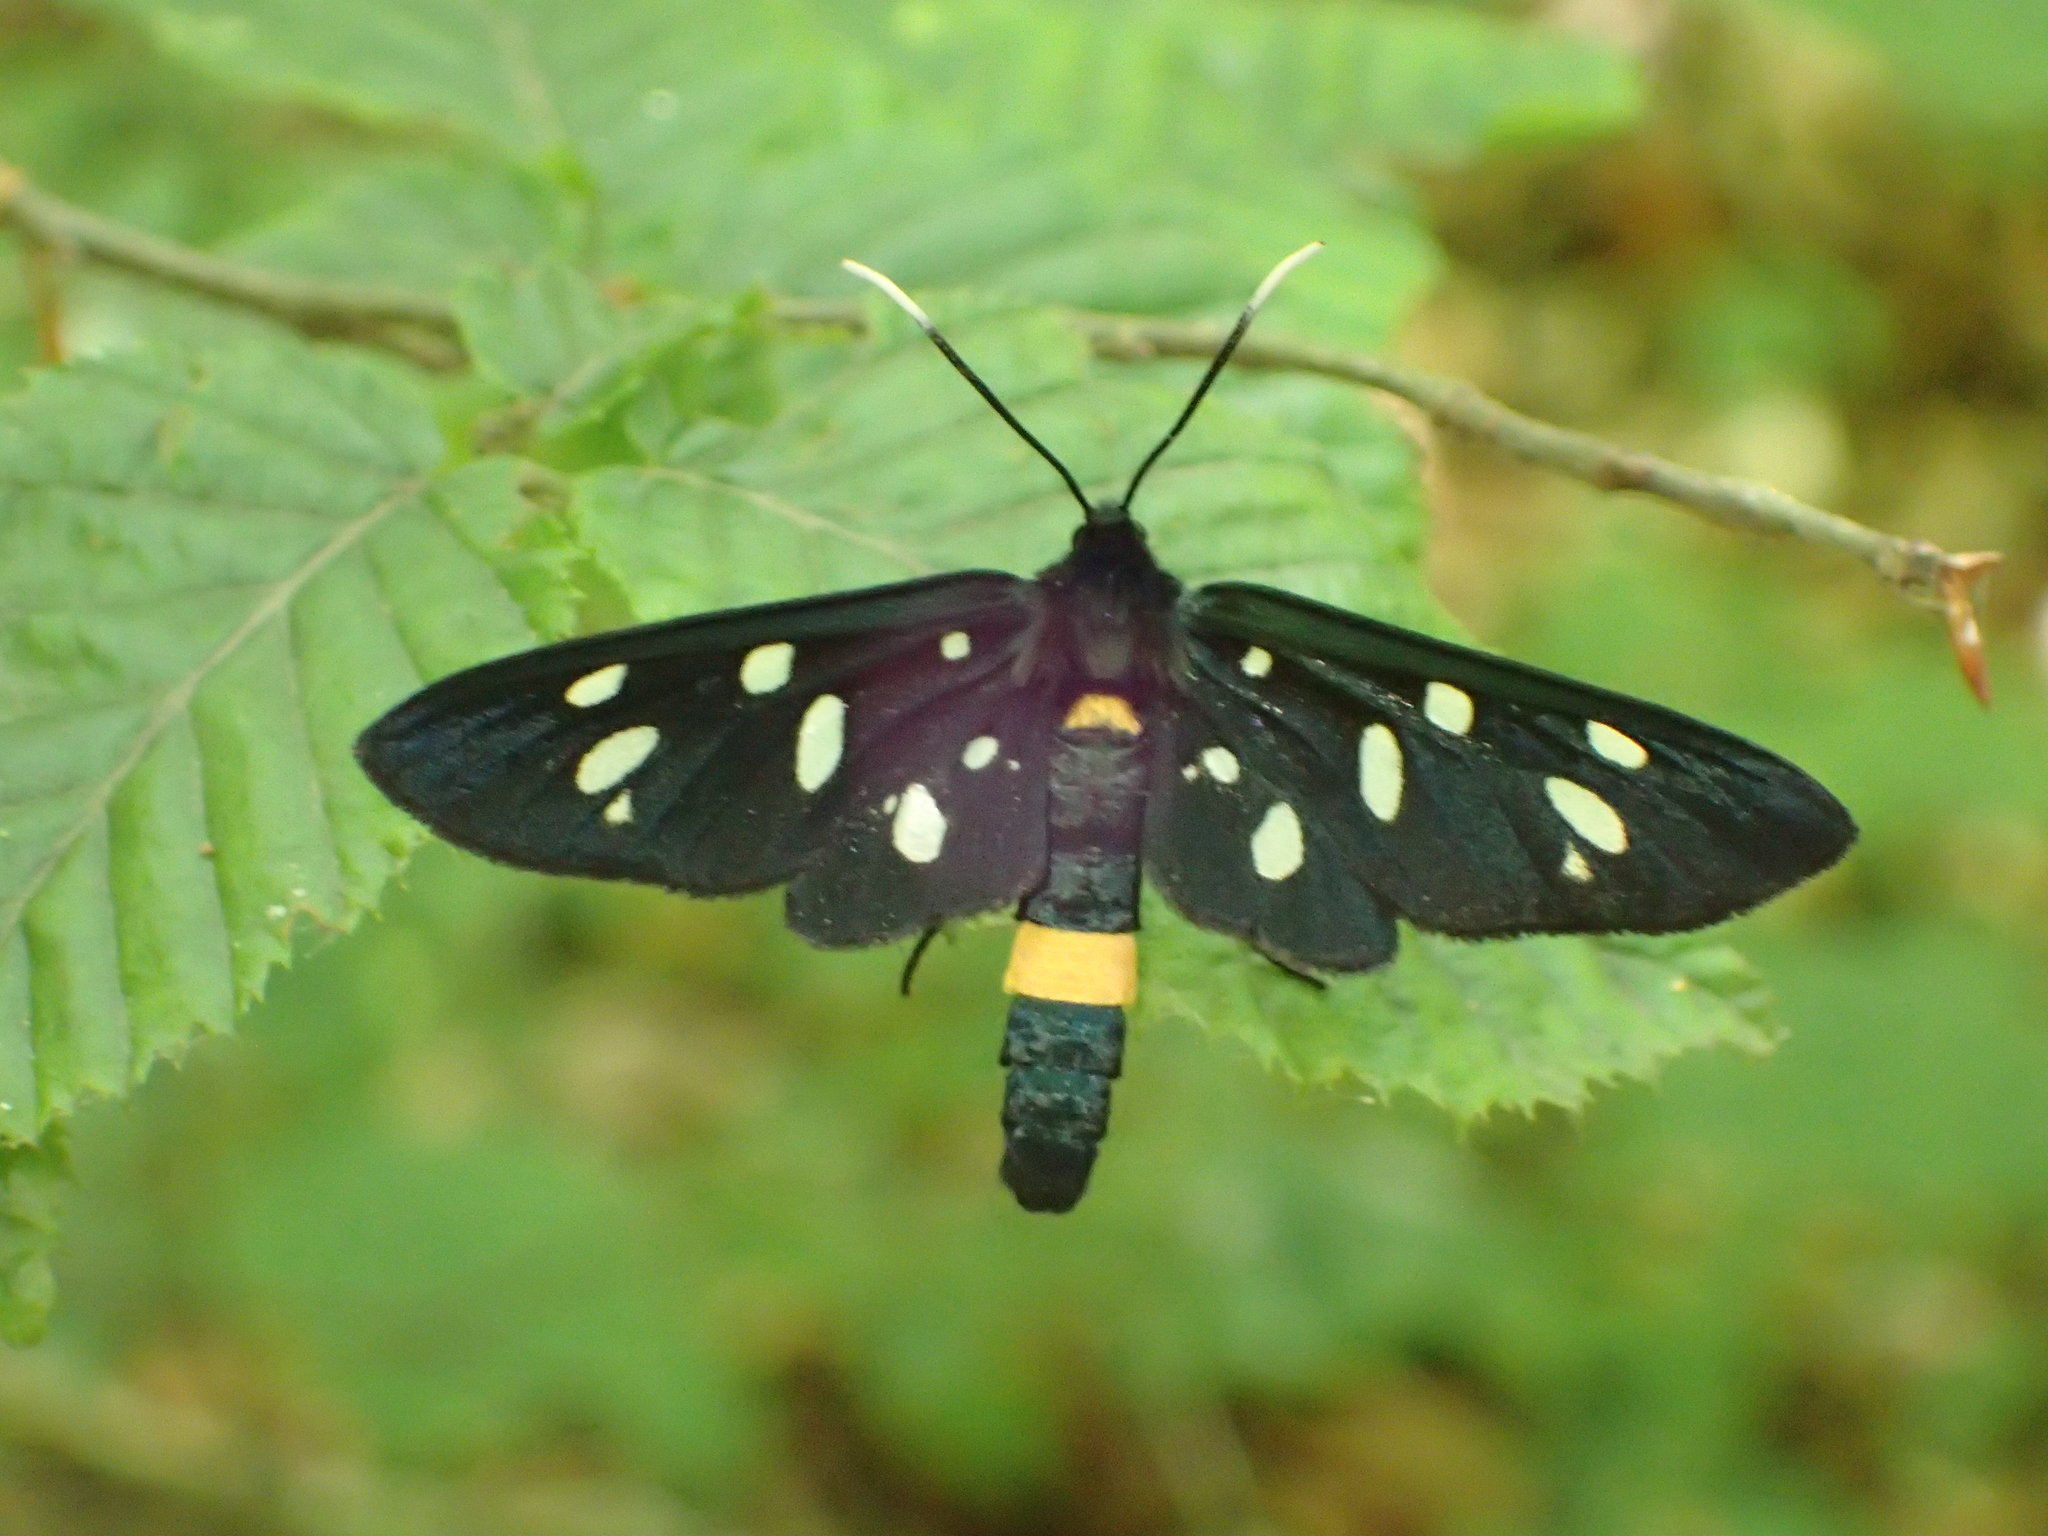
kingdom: Animalia
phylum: Arthropoda
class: Insecta
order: Lepidoptera
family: Erebidae
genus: Amata
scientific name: Amata phegea
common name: Nine-spotted
